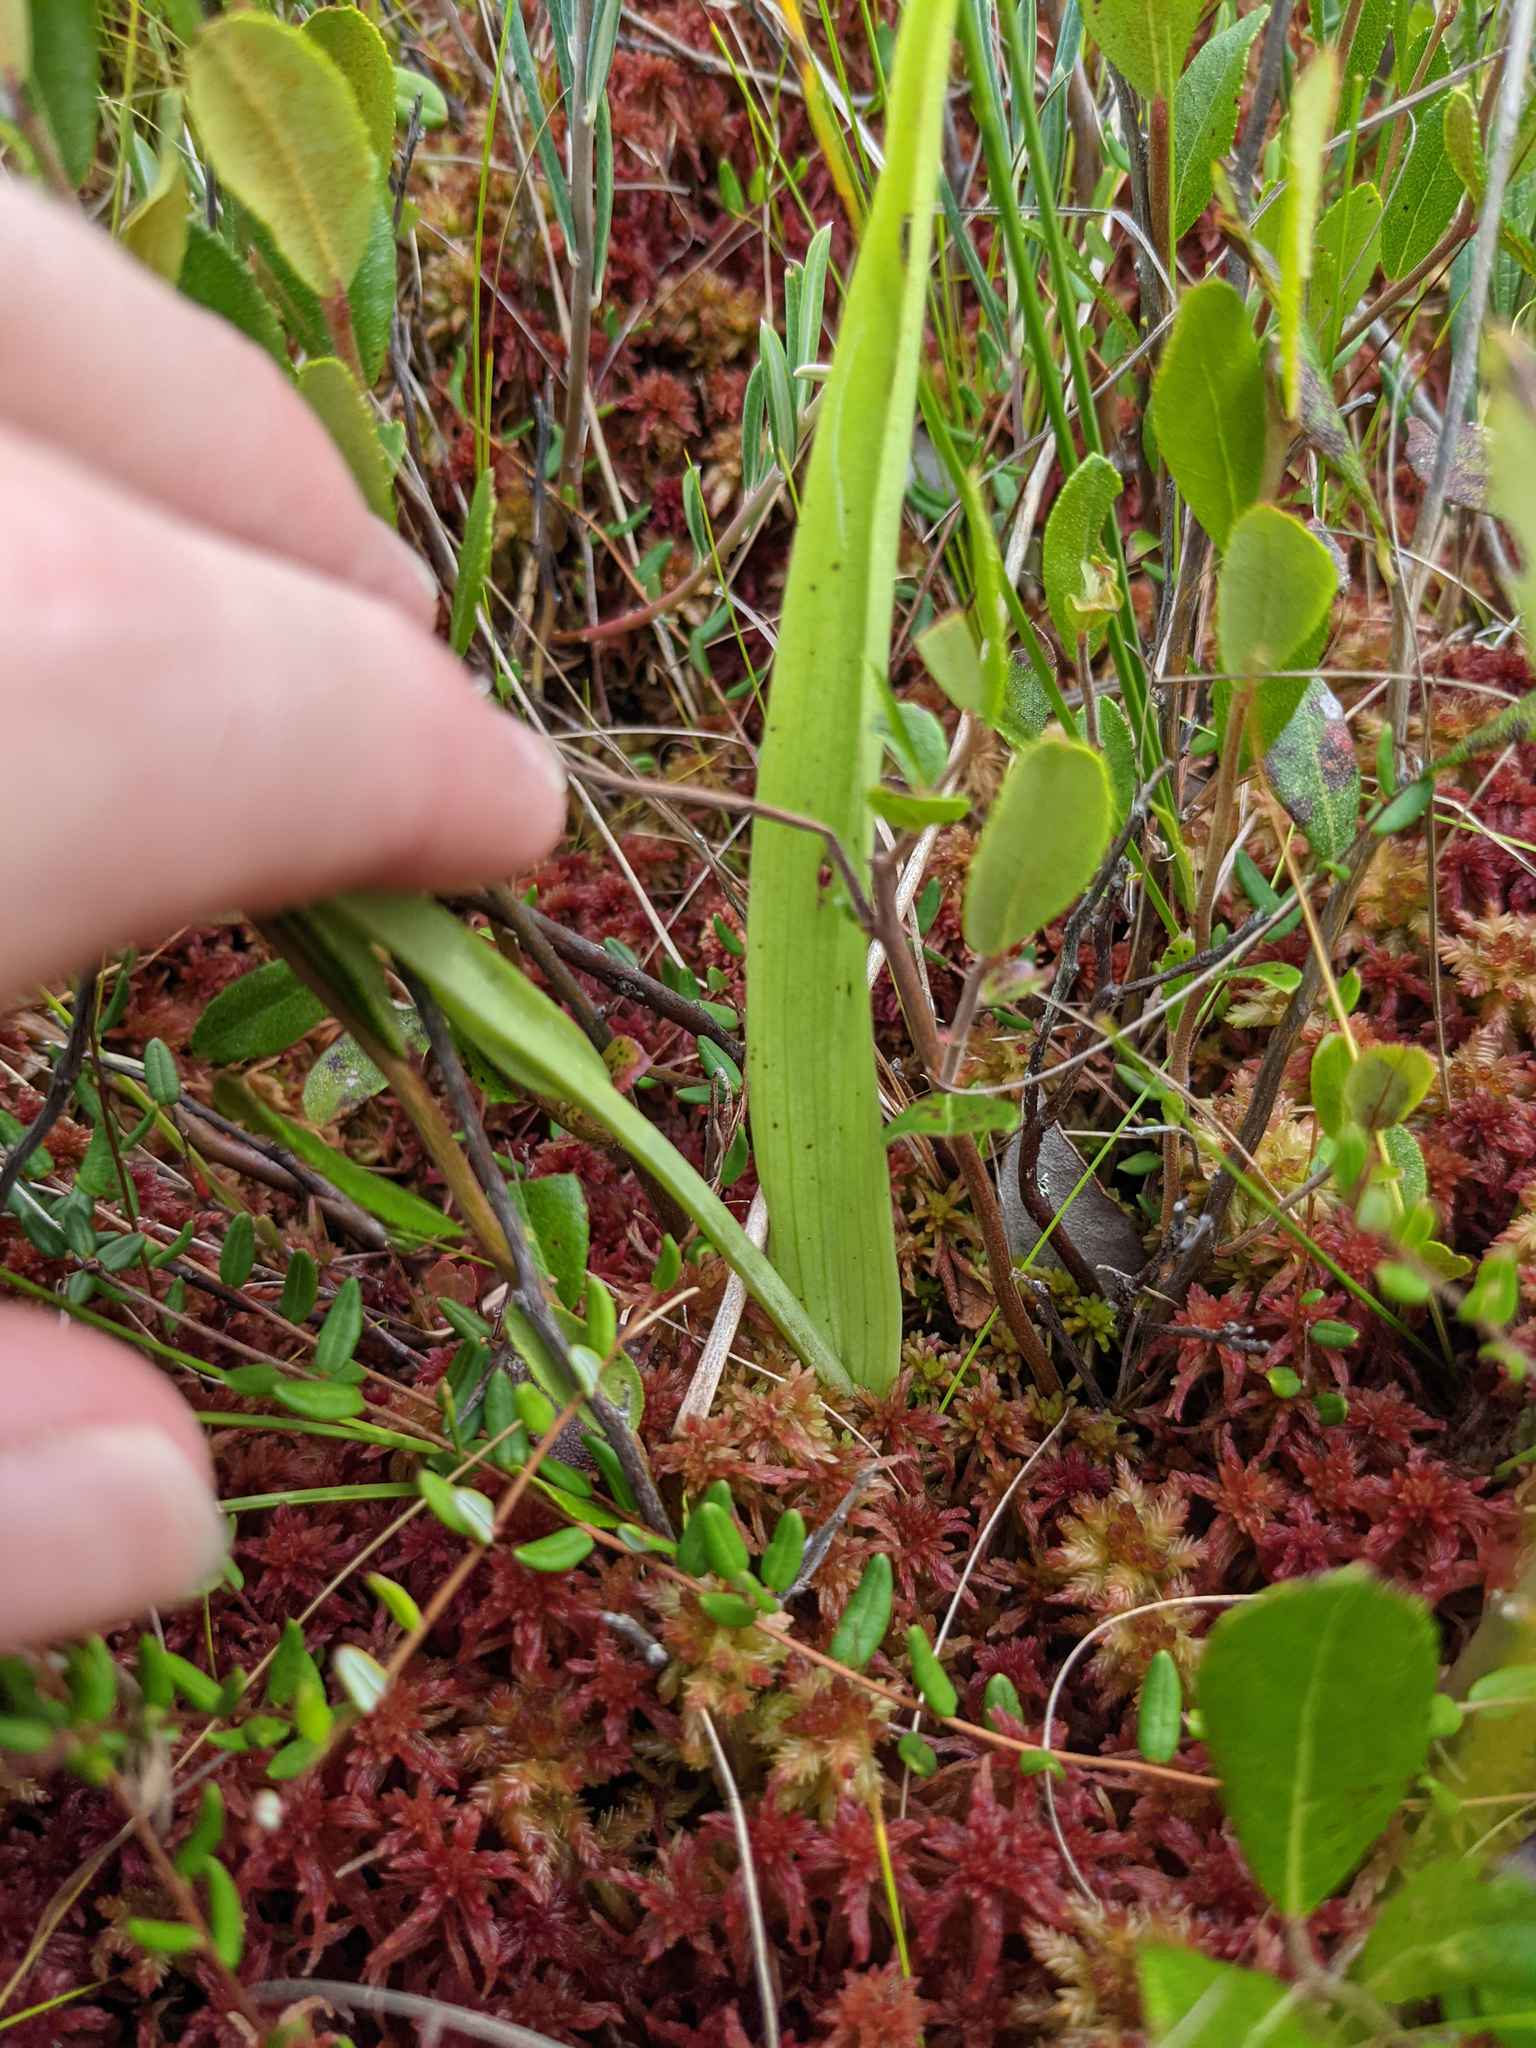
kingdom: Plantae
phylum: Tracheophyta
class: Liliopsida
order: Asparagales
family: Orchidaceae
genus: Platanthera
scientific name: Platanthera blephariglottis
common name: White fringed orchid
